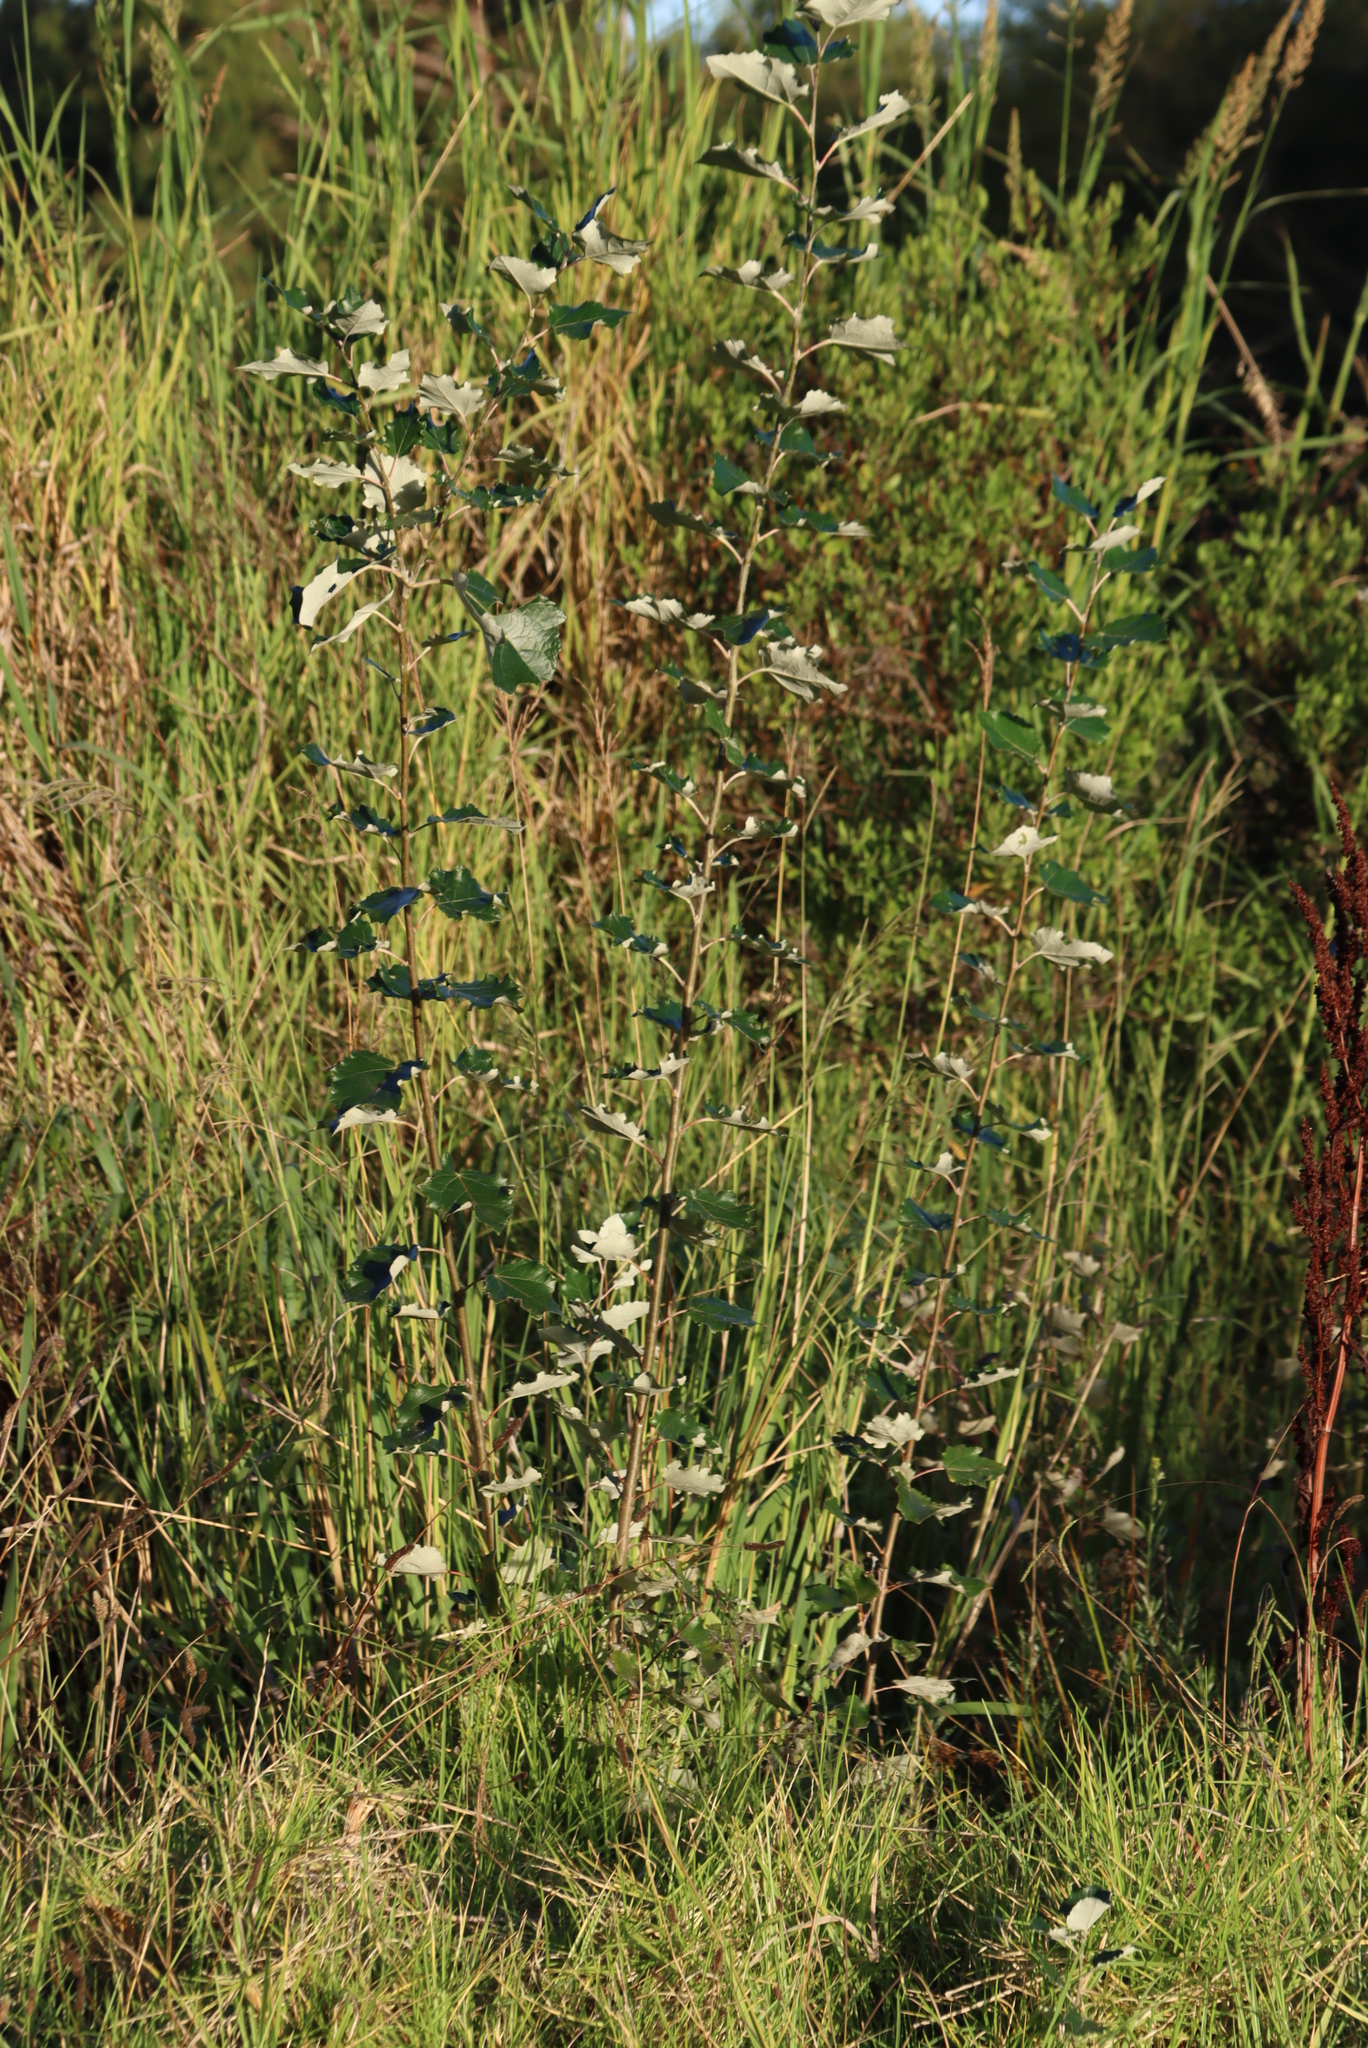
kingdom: Plantae
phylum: Tracheophyta
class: Magnoliopsida
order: Malpighiales
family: Salicaceae
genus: Populus
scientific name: Populus canescens
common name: Gray poplar
